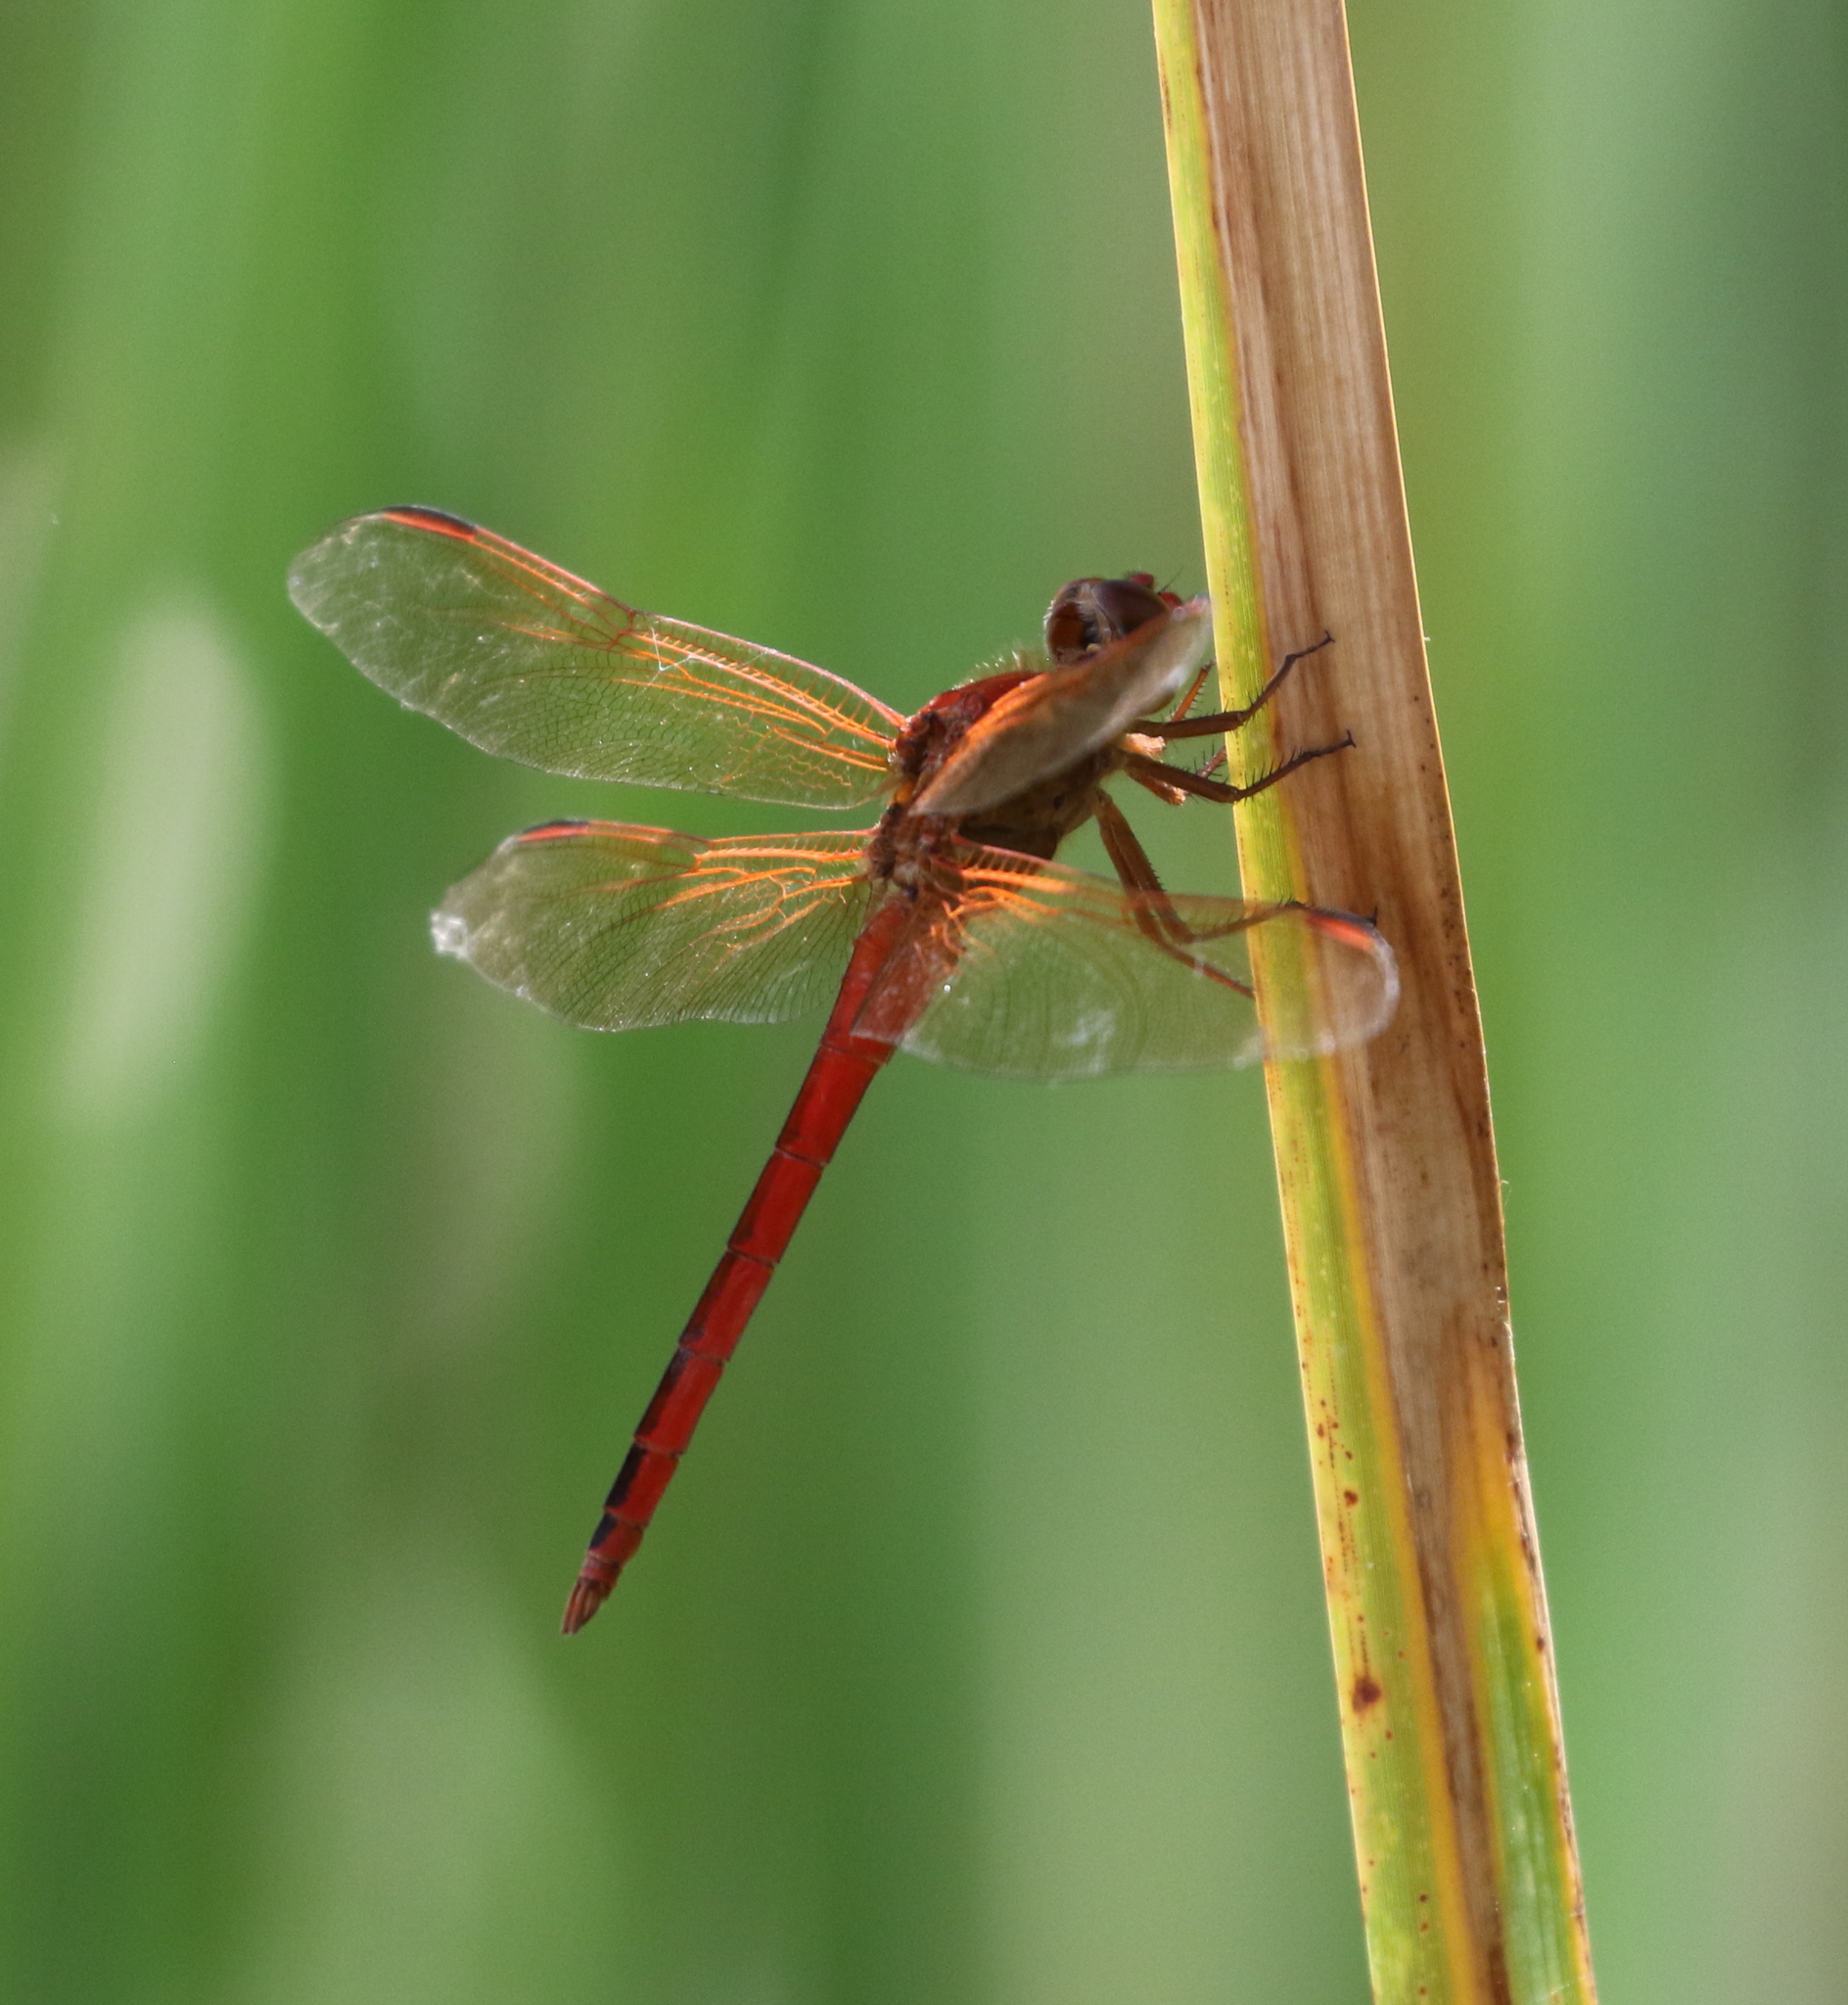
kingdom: Animalia
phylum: Arthropoda
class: Insecta
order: Odonata
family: Libellulidae
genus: Libellula
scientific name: Libellula needhami
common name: Needham's skimmer
